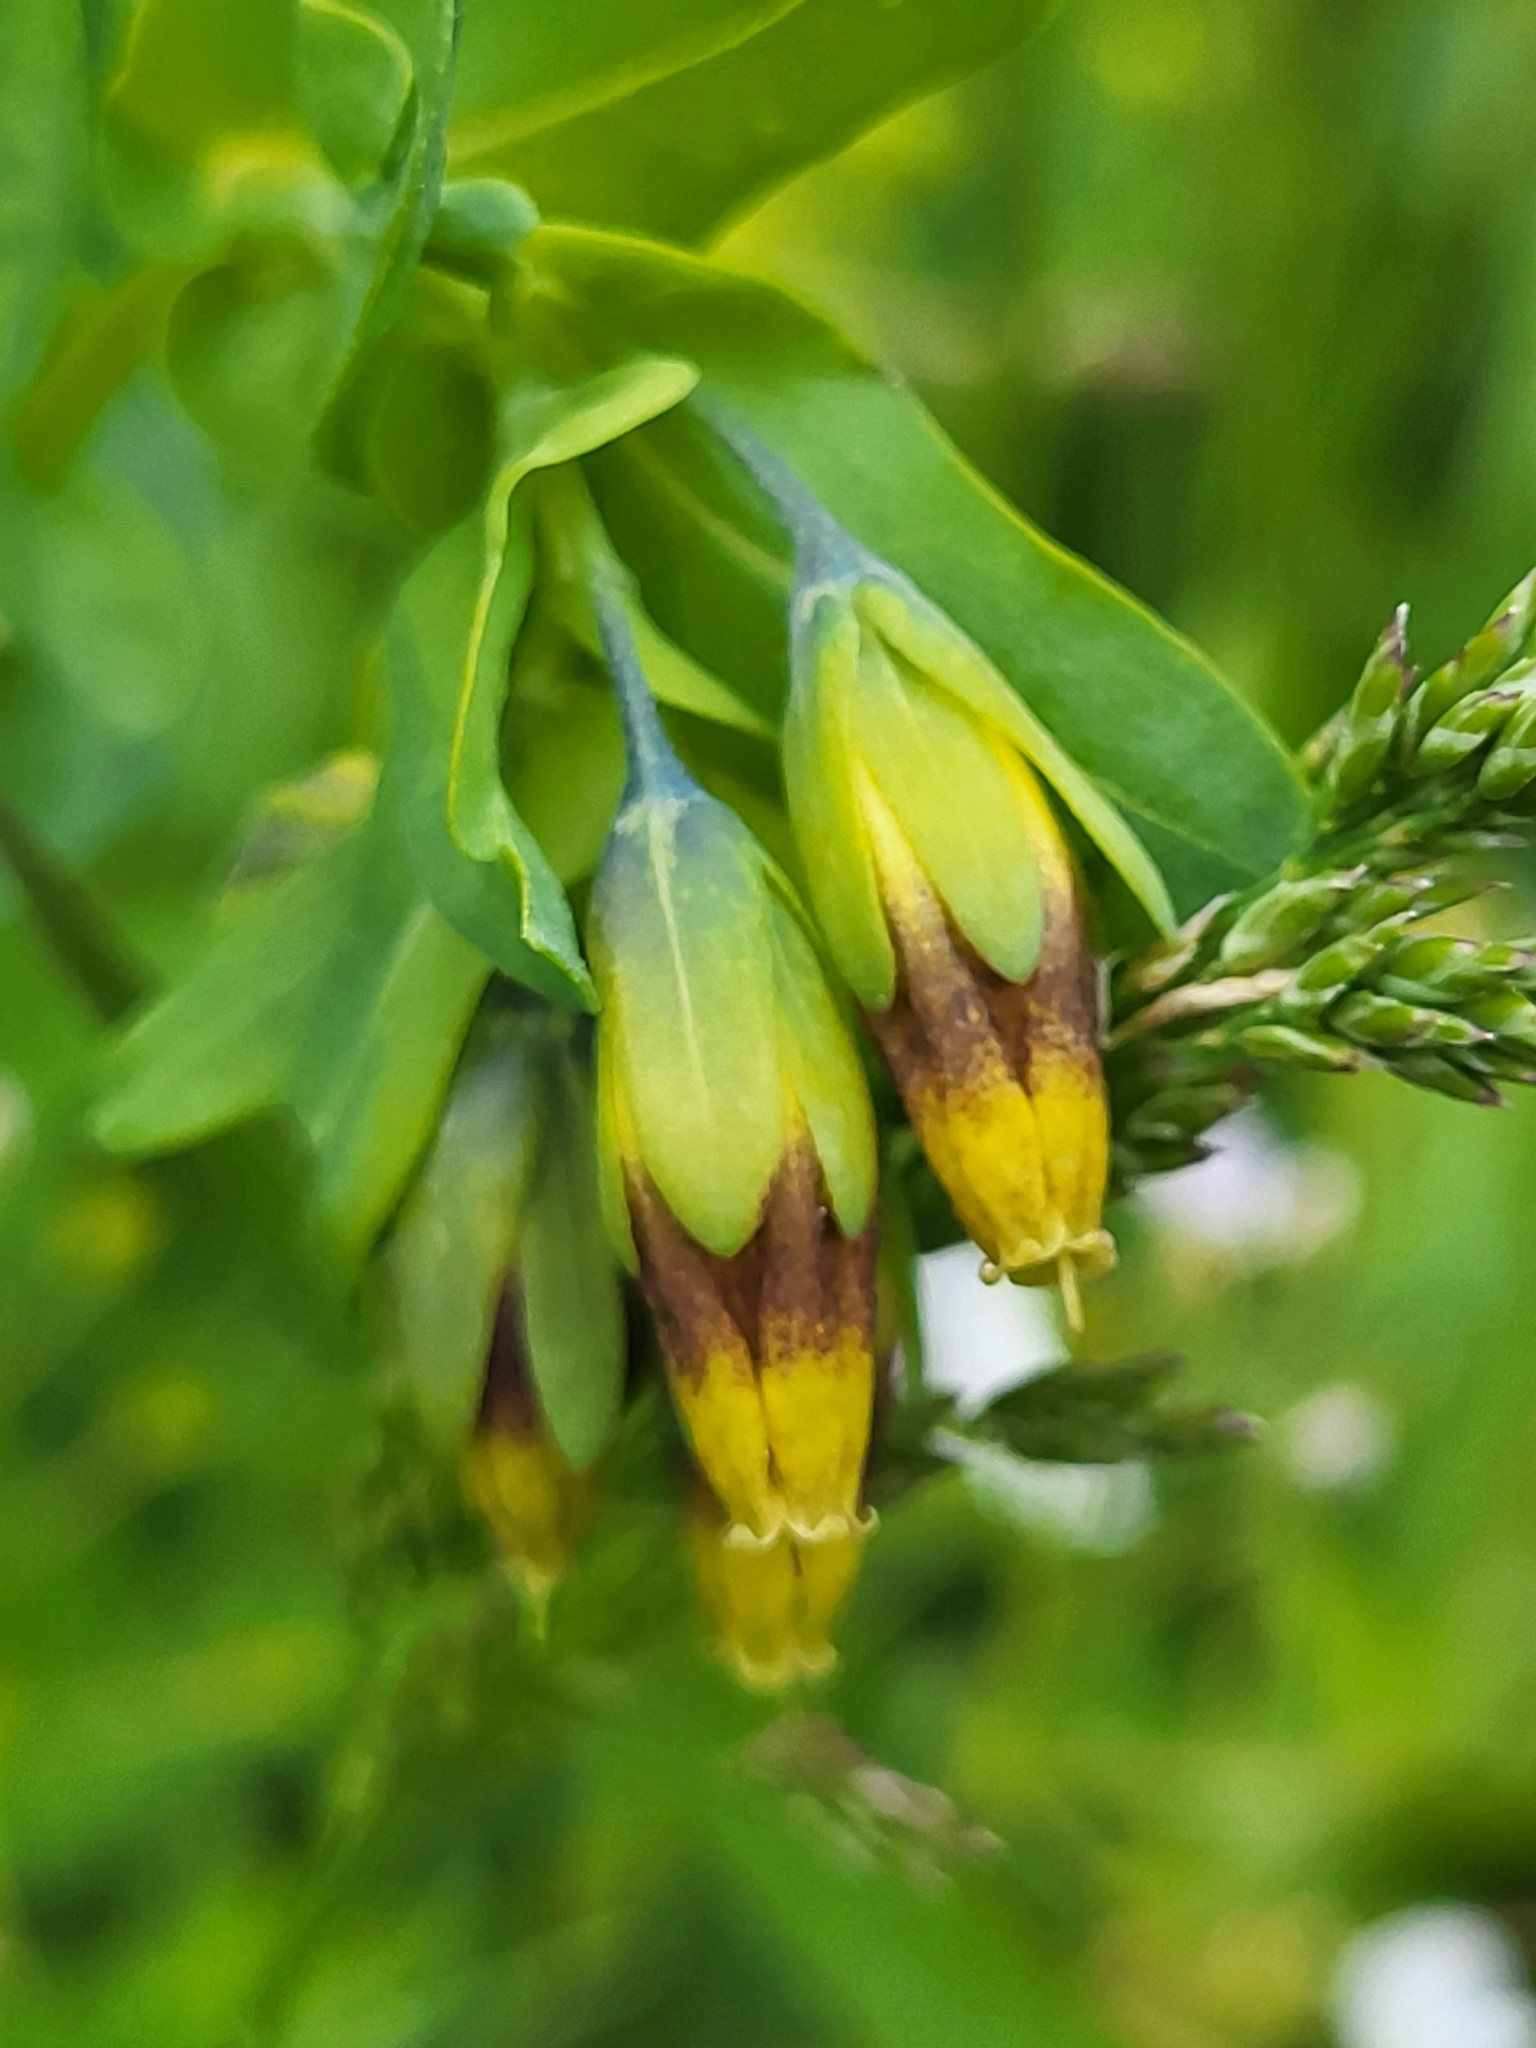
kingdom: Plantae
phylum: Tracheophyta
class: Magnoliopsida
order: Boraginales
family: Boraginaceae
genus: Cerinthe
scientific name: Cerinthe minor
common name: Lesser honeywort
